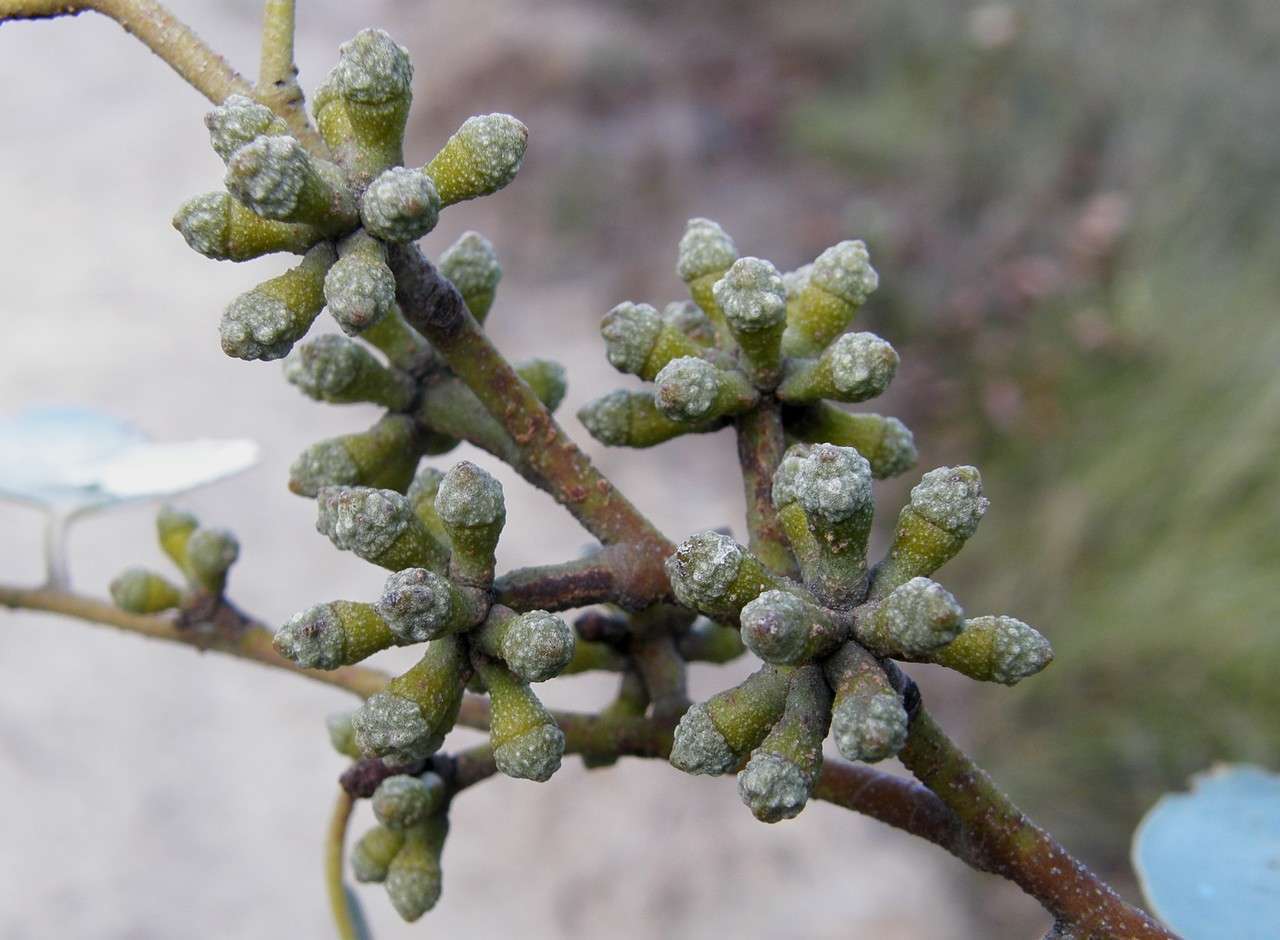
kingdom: Plantae
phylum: Tracheophyta
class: Magnoliopsida
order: Myrtales
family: Myrtaceae
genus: Eucalyptus
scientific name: Eucalyptus baxteri
